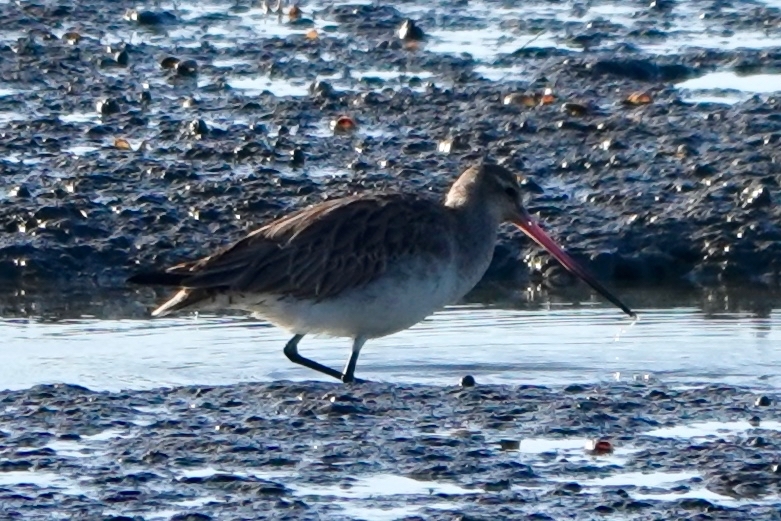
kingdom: Animalia
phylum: Chordata
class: Aves
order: Charadriiformes
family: Scolopacidae
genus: Limosa
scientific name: Limosa limosa
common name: Black-tailed godwit
